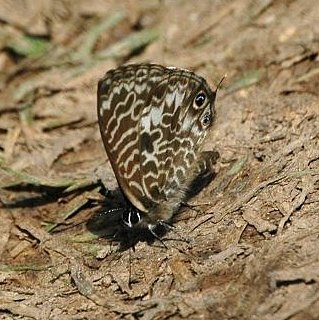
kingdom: Animalia
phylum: Arthropoda
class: Insecta
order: Lepidoptera
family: Lycaenidae
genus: Leptotes
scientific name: Leptotes rabenafer
